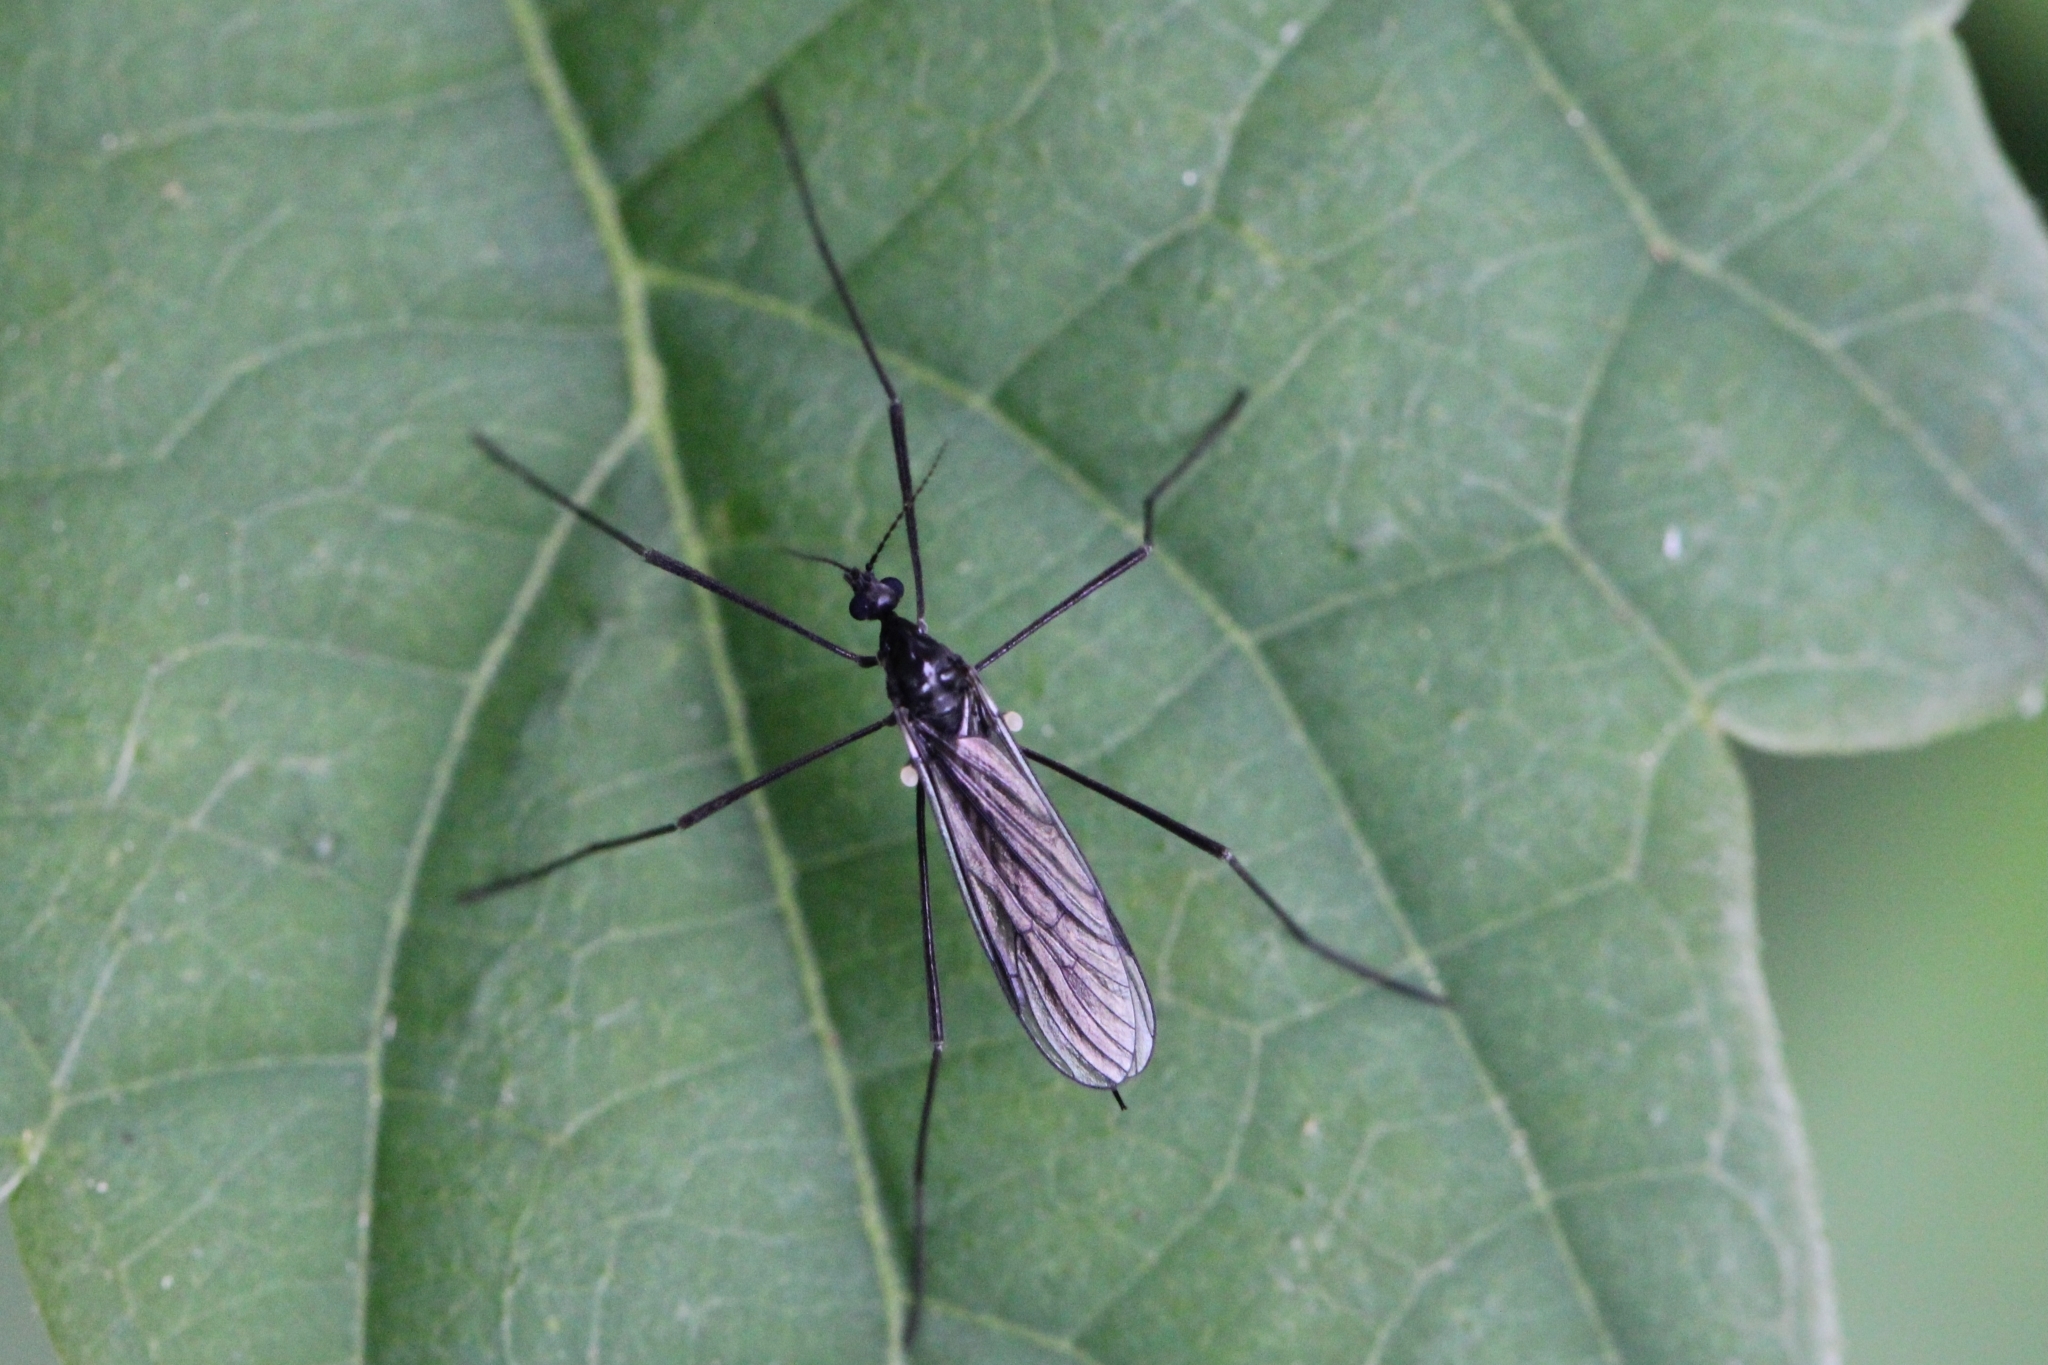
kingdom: Animalia
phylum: Arthropoda
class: Insecta
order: Diptera
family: Limoniidae
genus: Gnophomyia
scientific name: Gnophomyia tristissima
